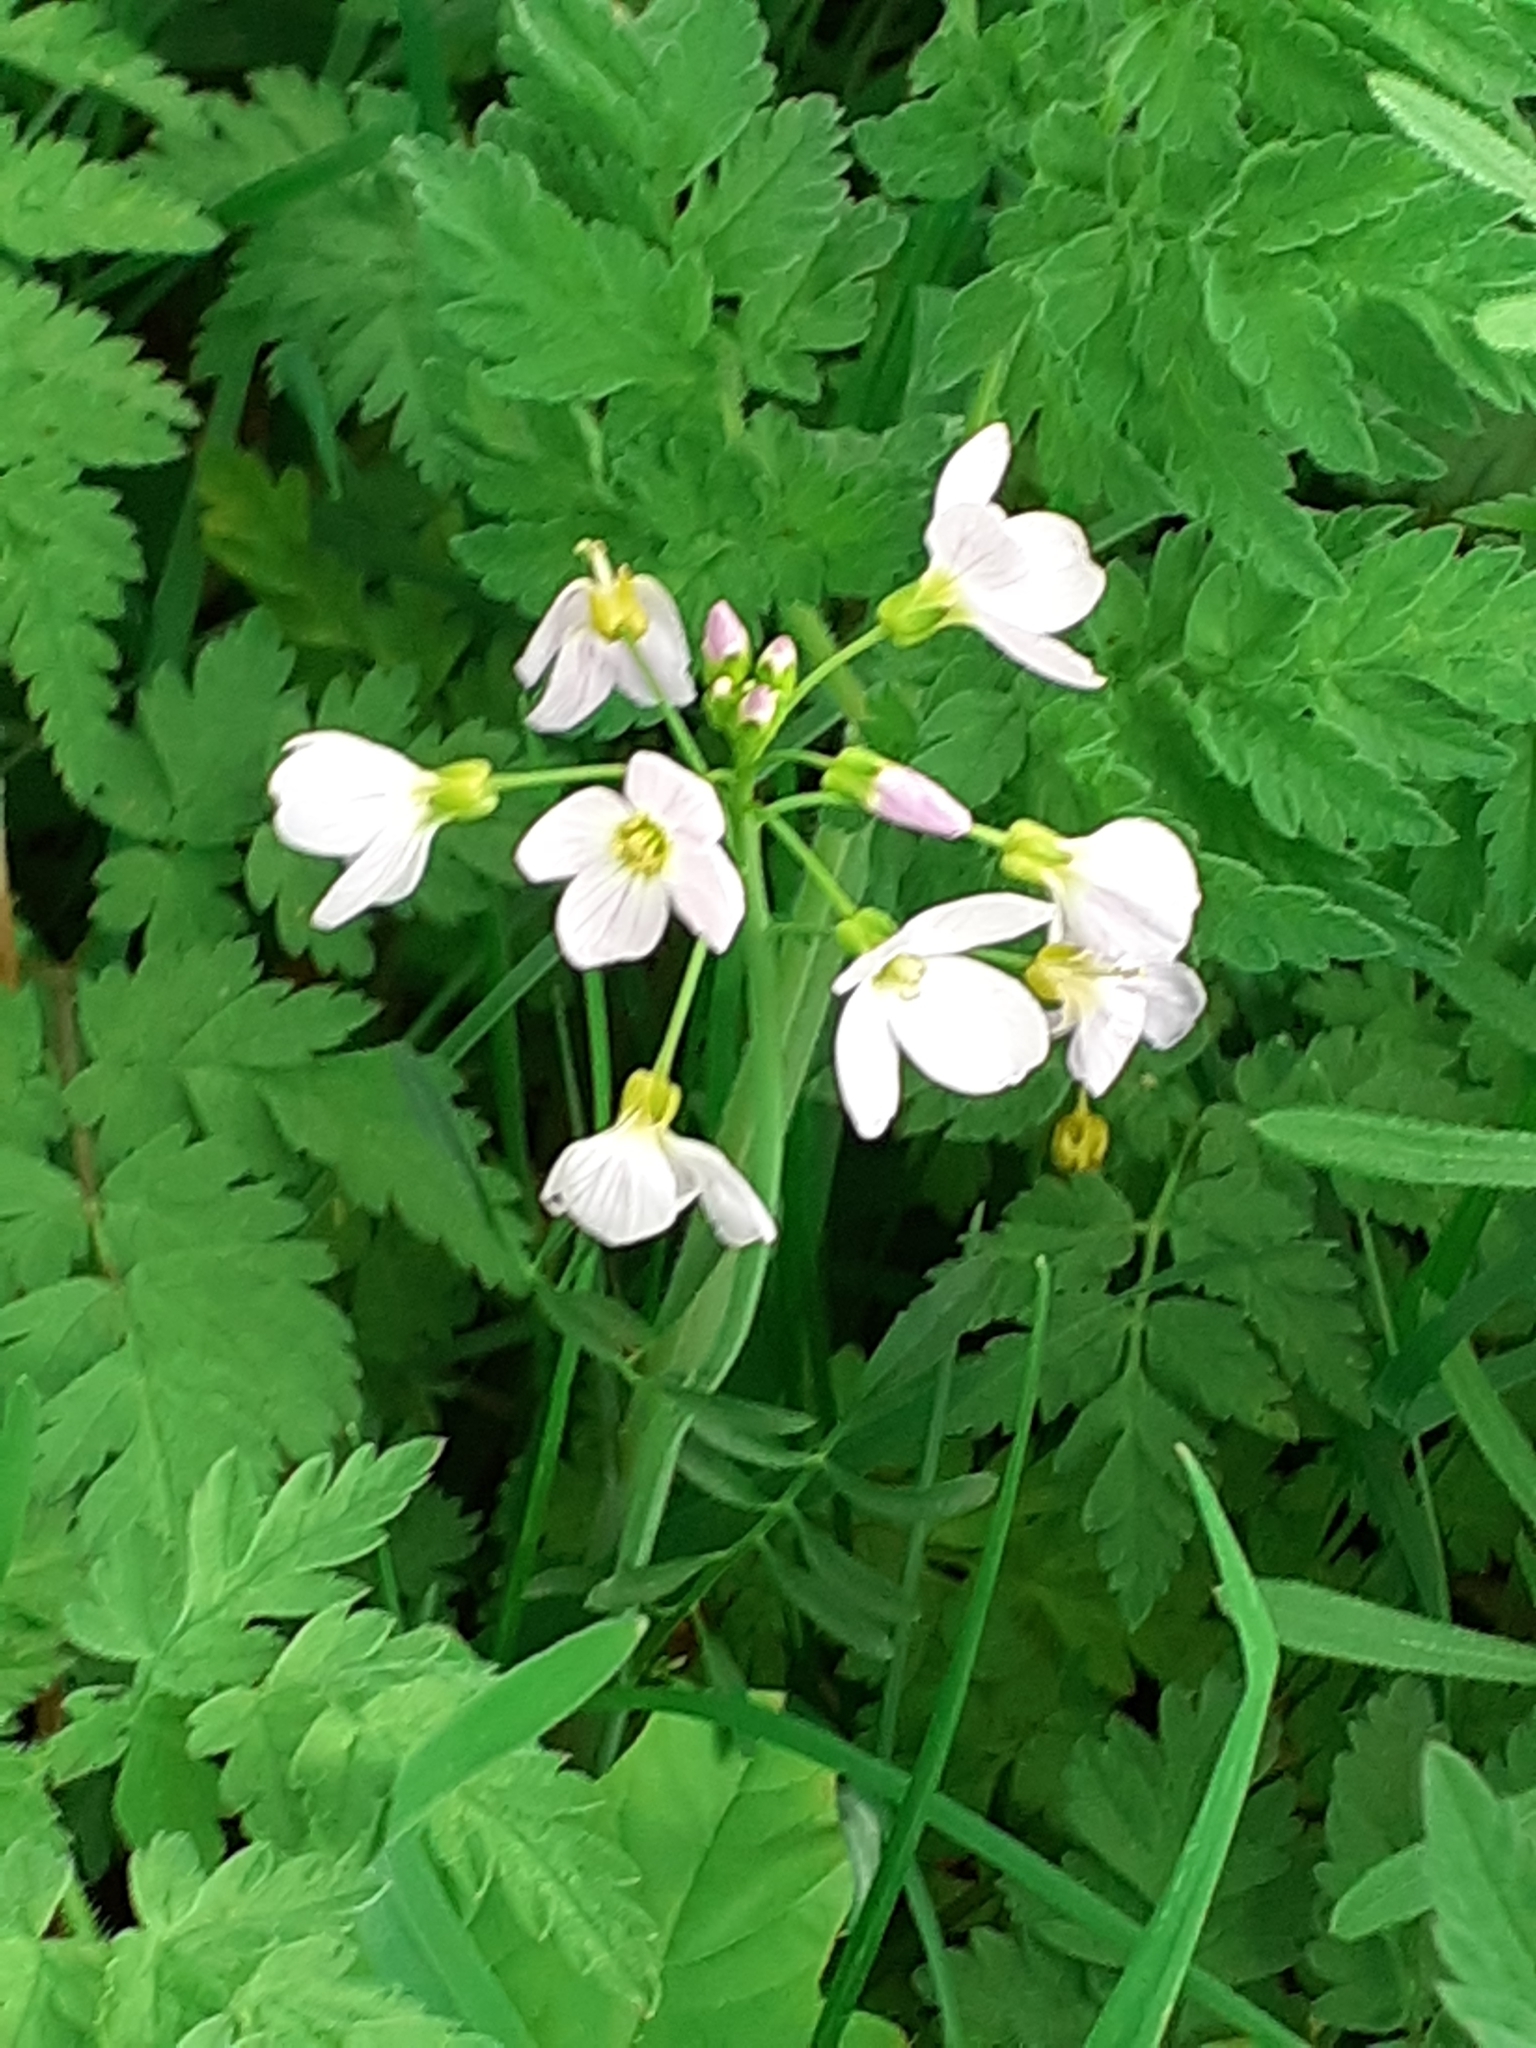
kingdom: Plantae
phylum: Tracheophyta
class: Magnoliopsida
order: Brassicales
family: Brassicaceae
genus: Cardamine
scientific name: Cardamine pratensis
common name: Cuckoo flower
